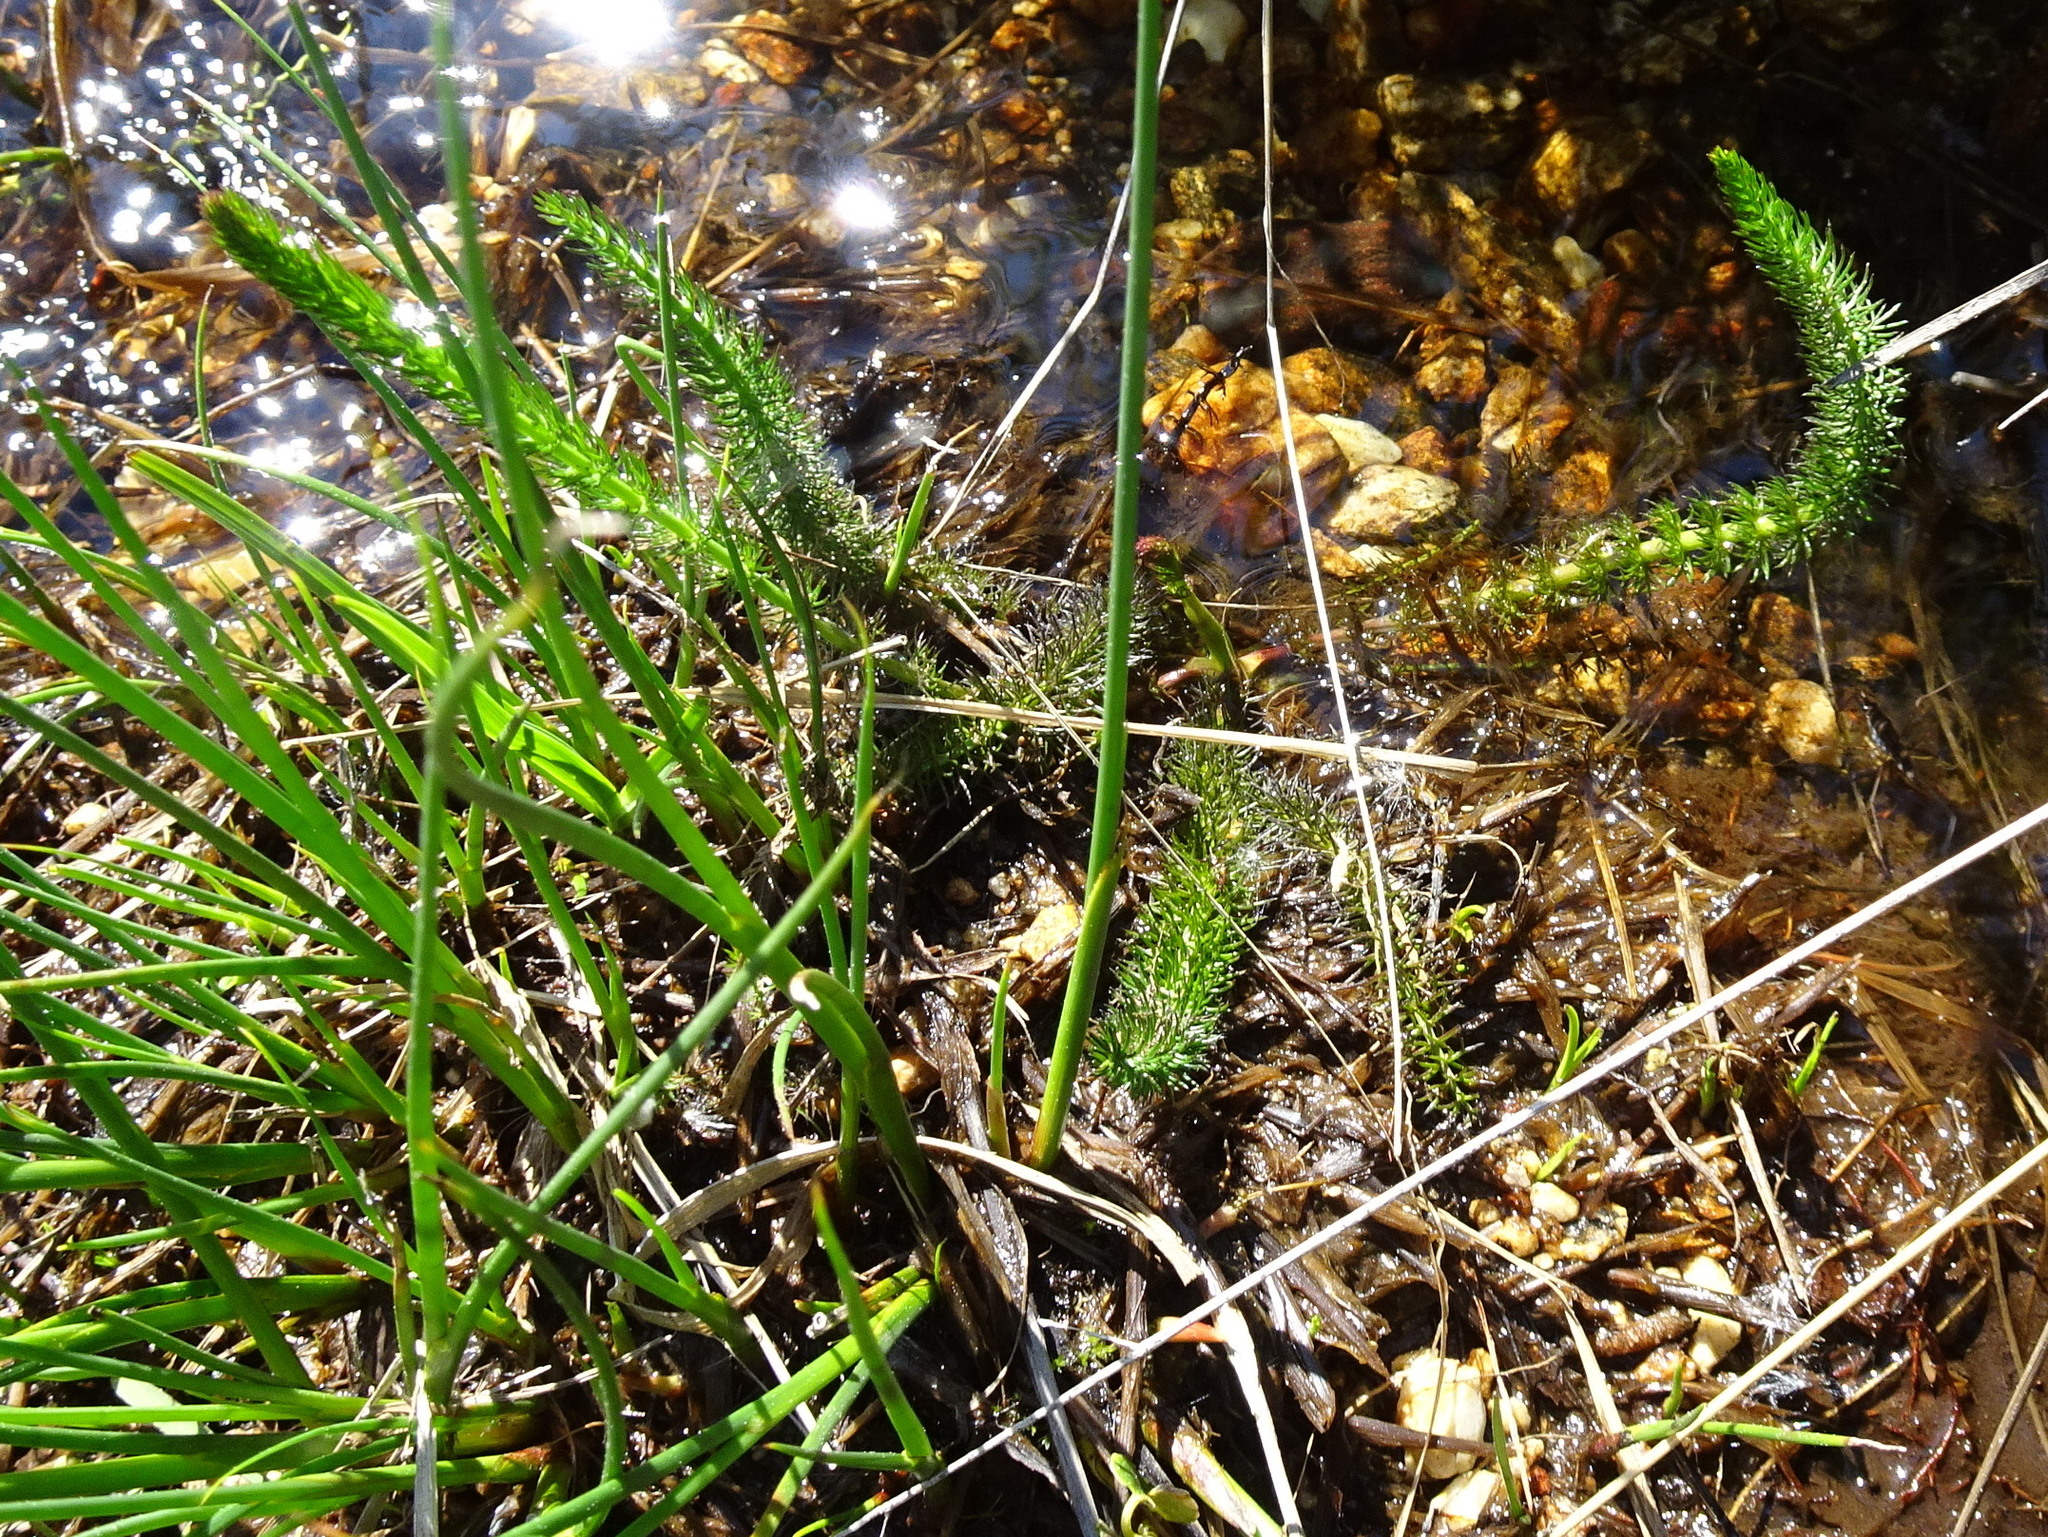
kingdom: Plantae
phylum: Tracheophyta
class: Magnoliopsida
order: Lamiales
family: Plantaginaceae
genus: Hippuris
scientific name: Hippuris vulgaris
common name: Mare's-tail
